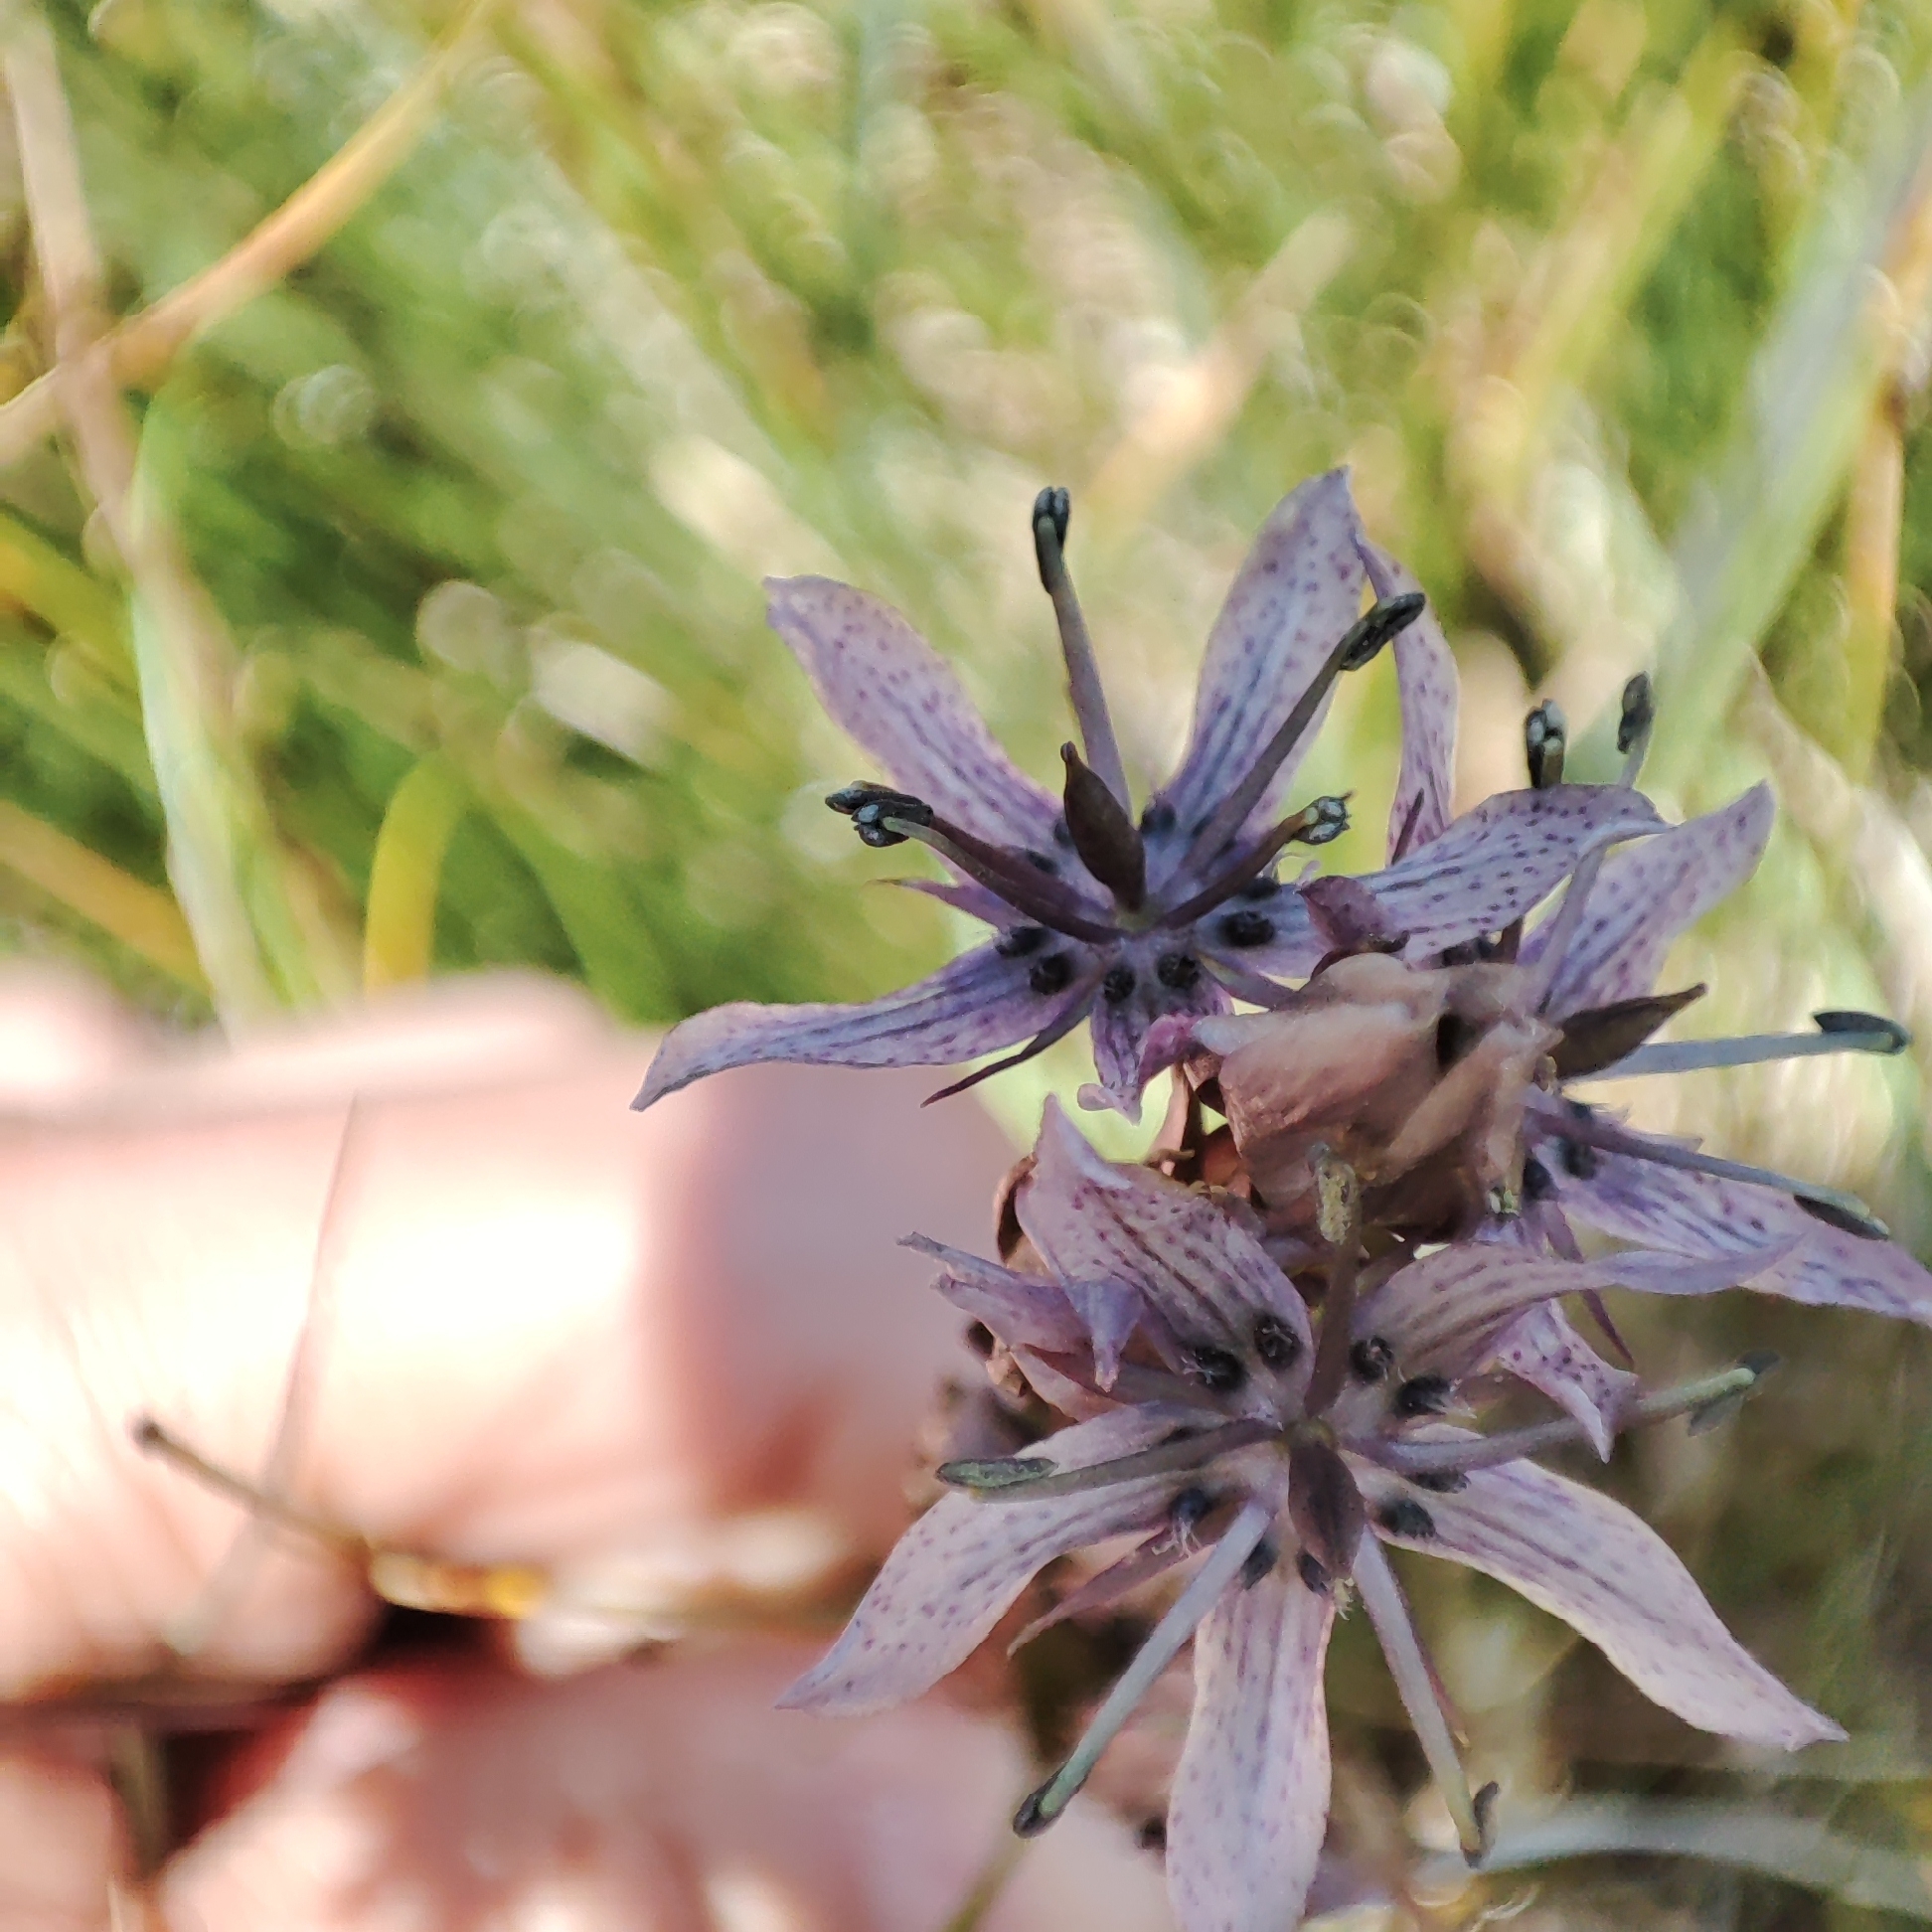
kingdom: Plantae
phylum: Tracheophyta
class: Magnoliopsida
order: Gentianales
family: Gentianaceae
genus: Swertia
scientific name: Swertia perennis
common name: Alpine bog swertia
